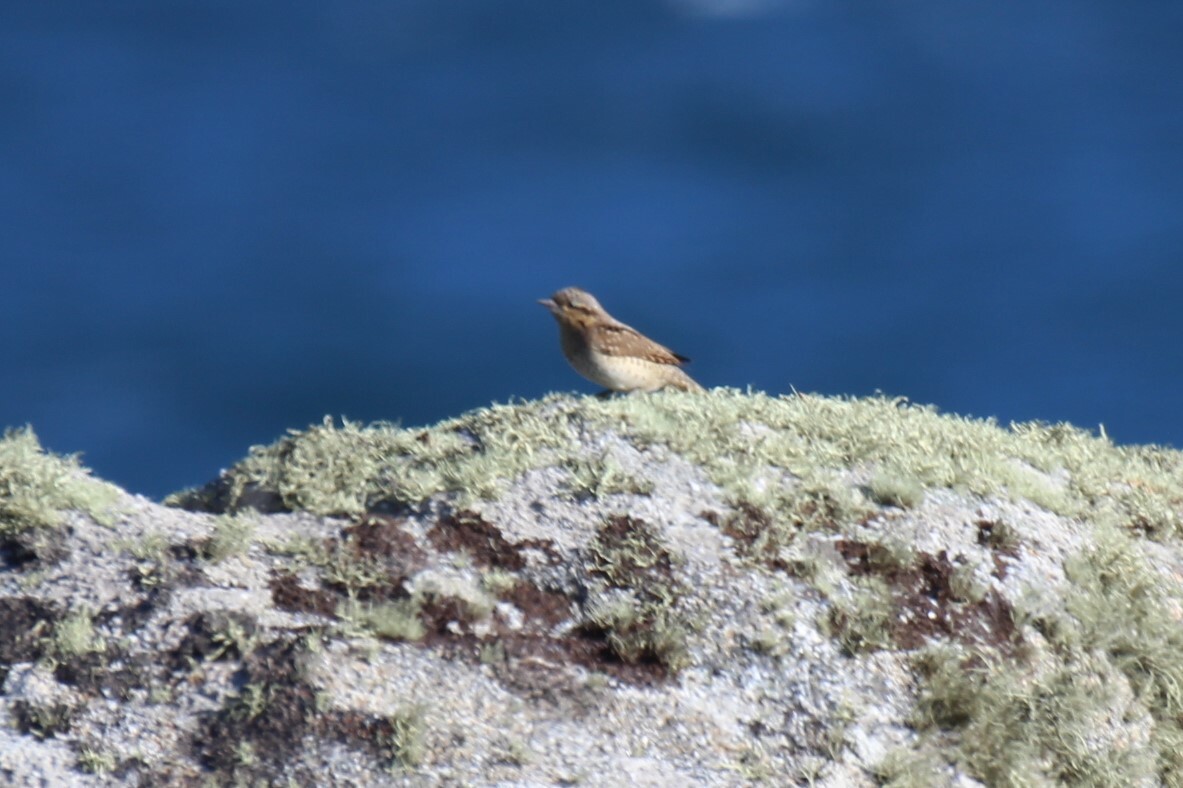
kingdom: Animalia
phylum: Chordata
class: Aves
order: Piciformes
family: Picidae
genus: Jynx
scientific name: Jynx torquilla
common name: Eurasian wryneck
